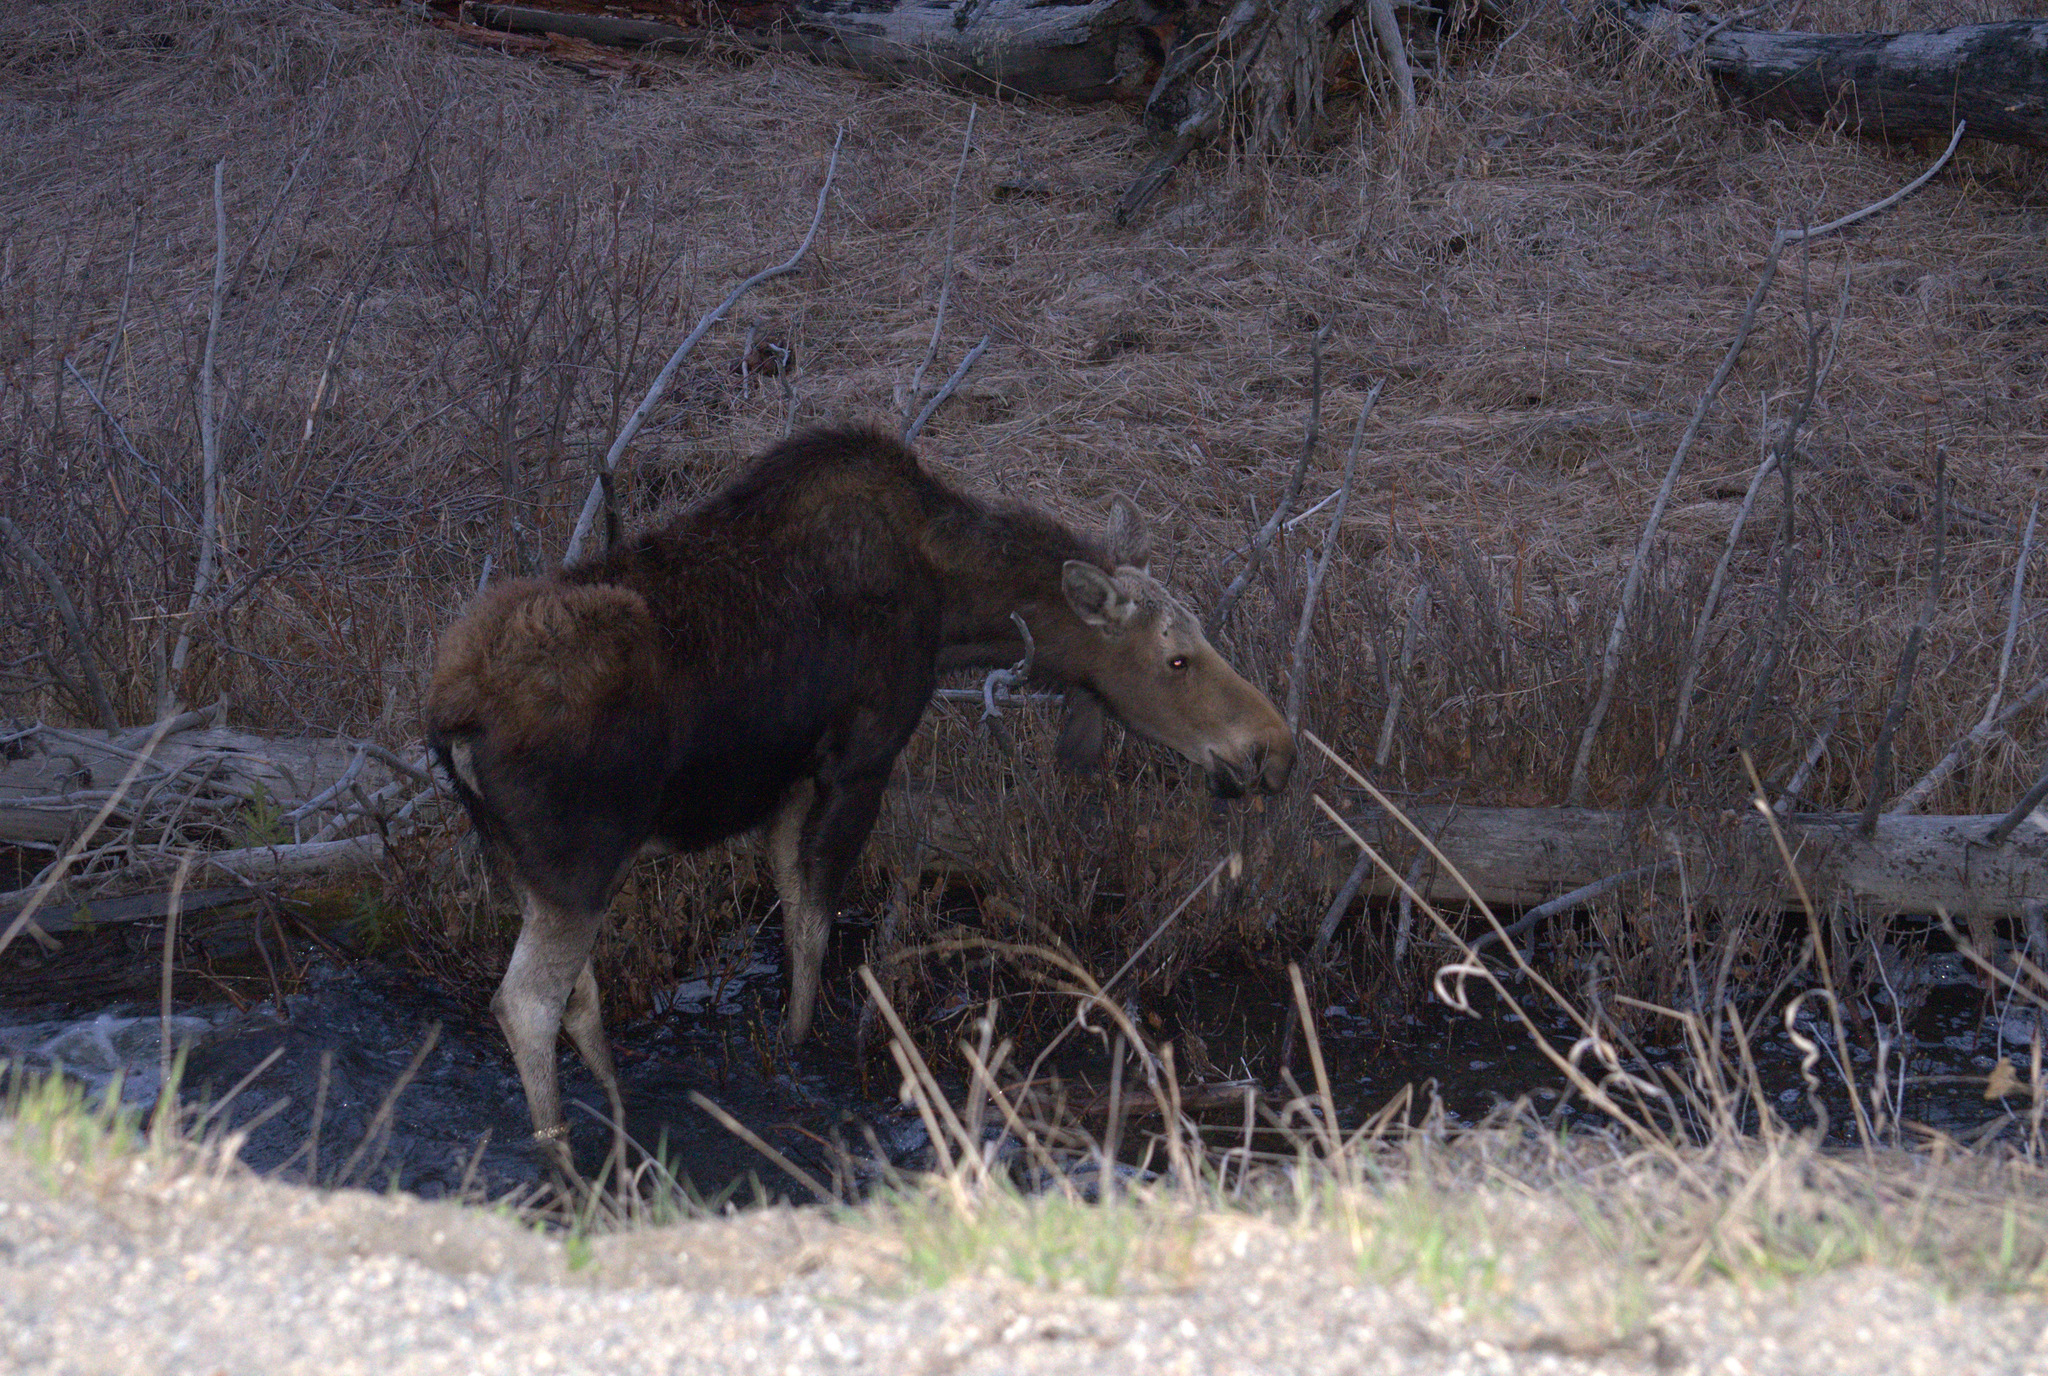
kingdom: Animalia
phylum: Chordata
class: Mammalia
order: Artiodactyla
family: Cervidae
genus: Alces
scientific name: Alces alces
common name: Moose
